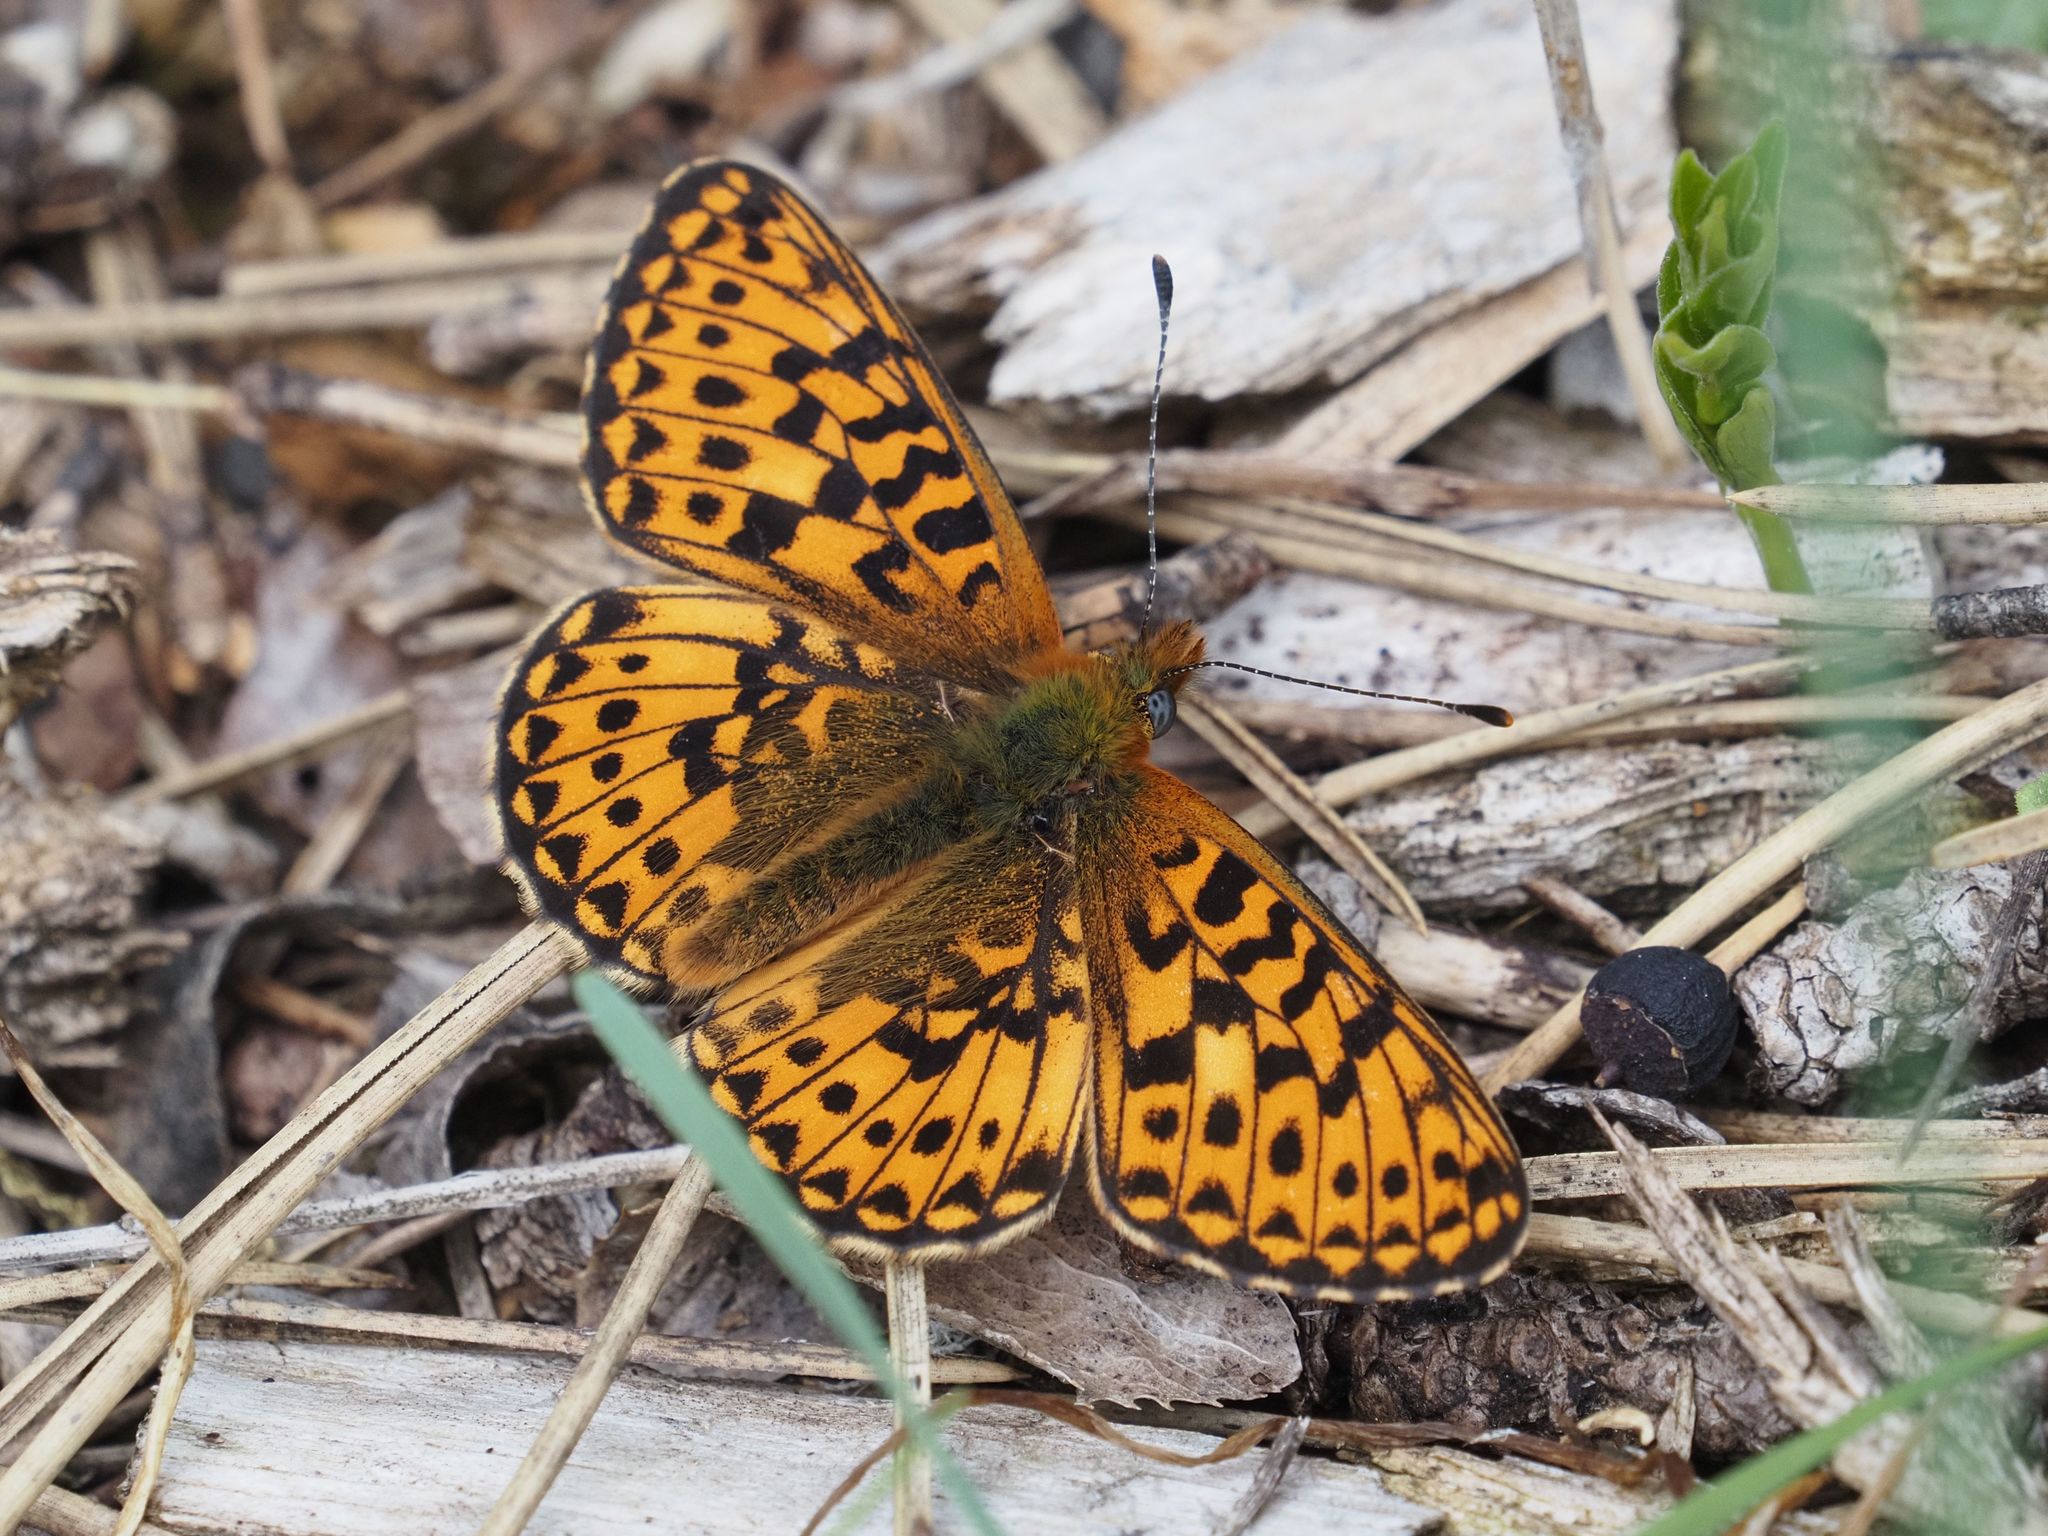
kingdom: Animalia
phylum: Arthropoda
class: Insecta
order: Lepidoptera
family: Nymphalidae
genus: Clossiana
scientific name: Clossiana euphrosyne
